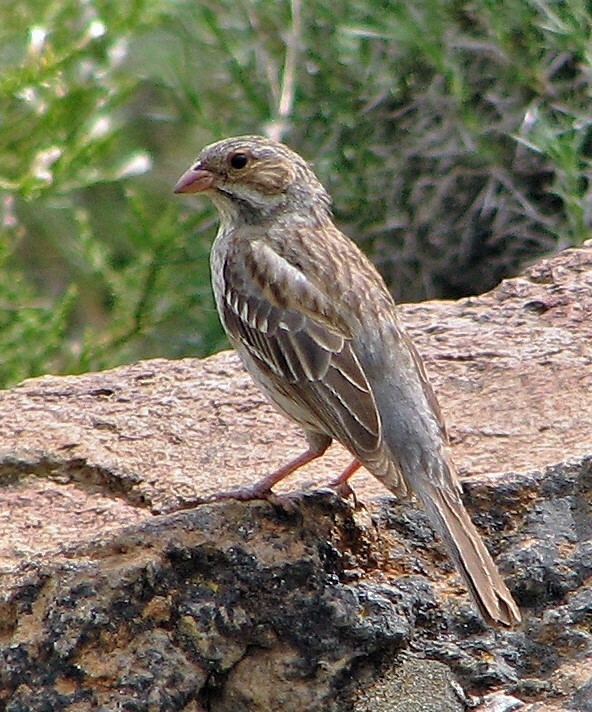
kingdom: Animalia
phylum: Chordata
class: Aves
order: Passeriformes
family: Thraupidae
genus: Rhopospina
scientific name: Rhopospina fruticeti
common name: Mourning sierra finch
